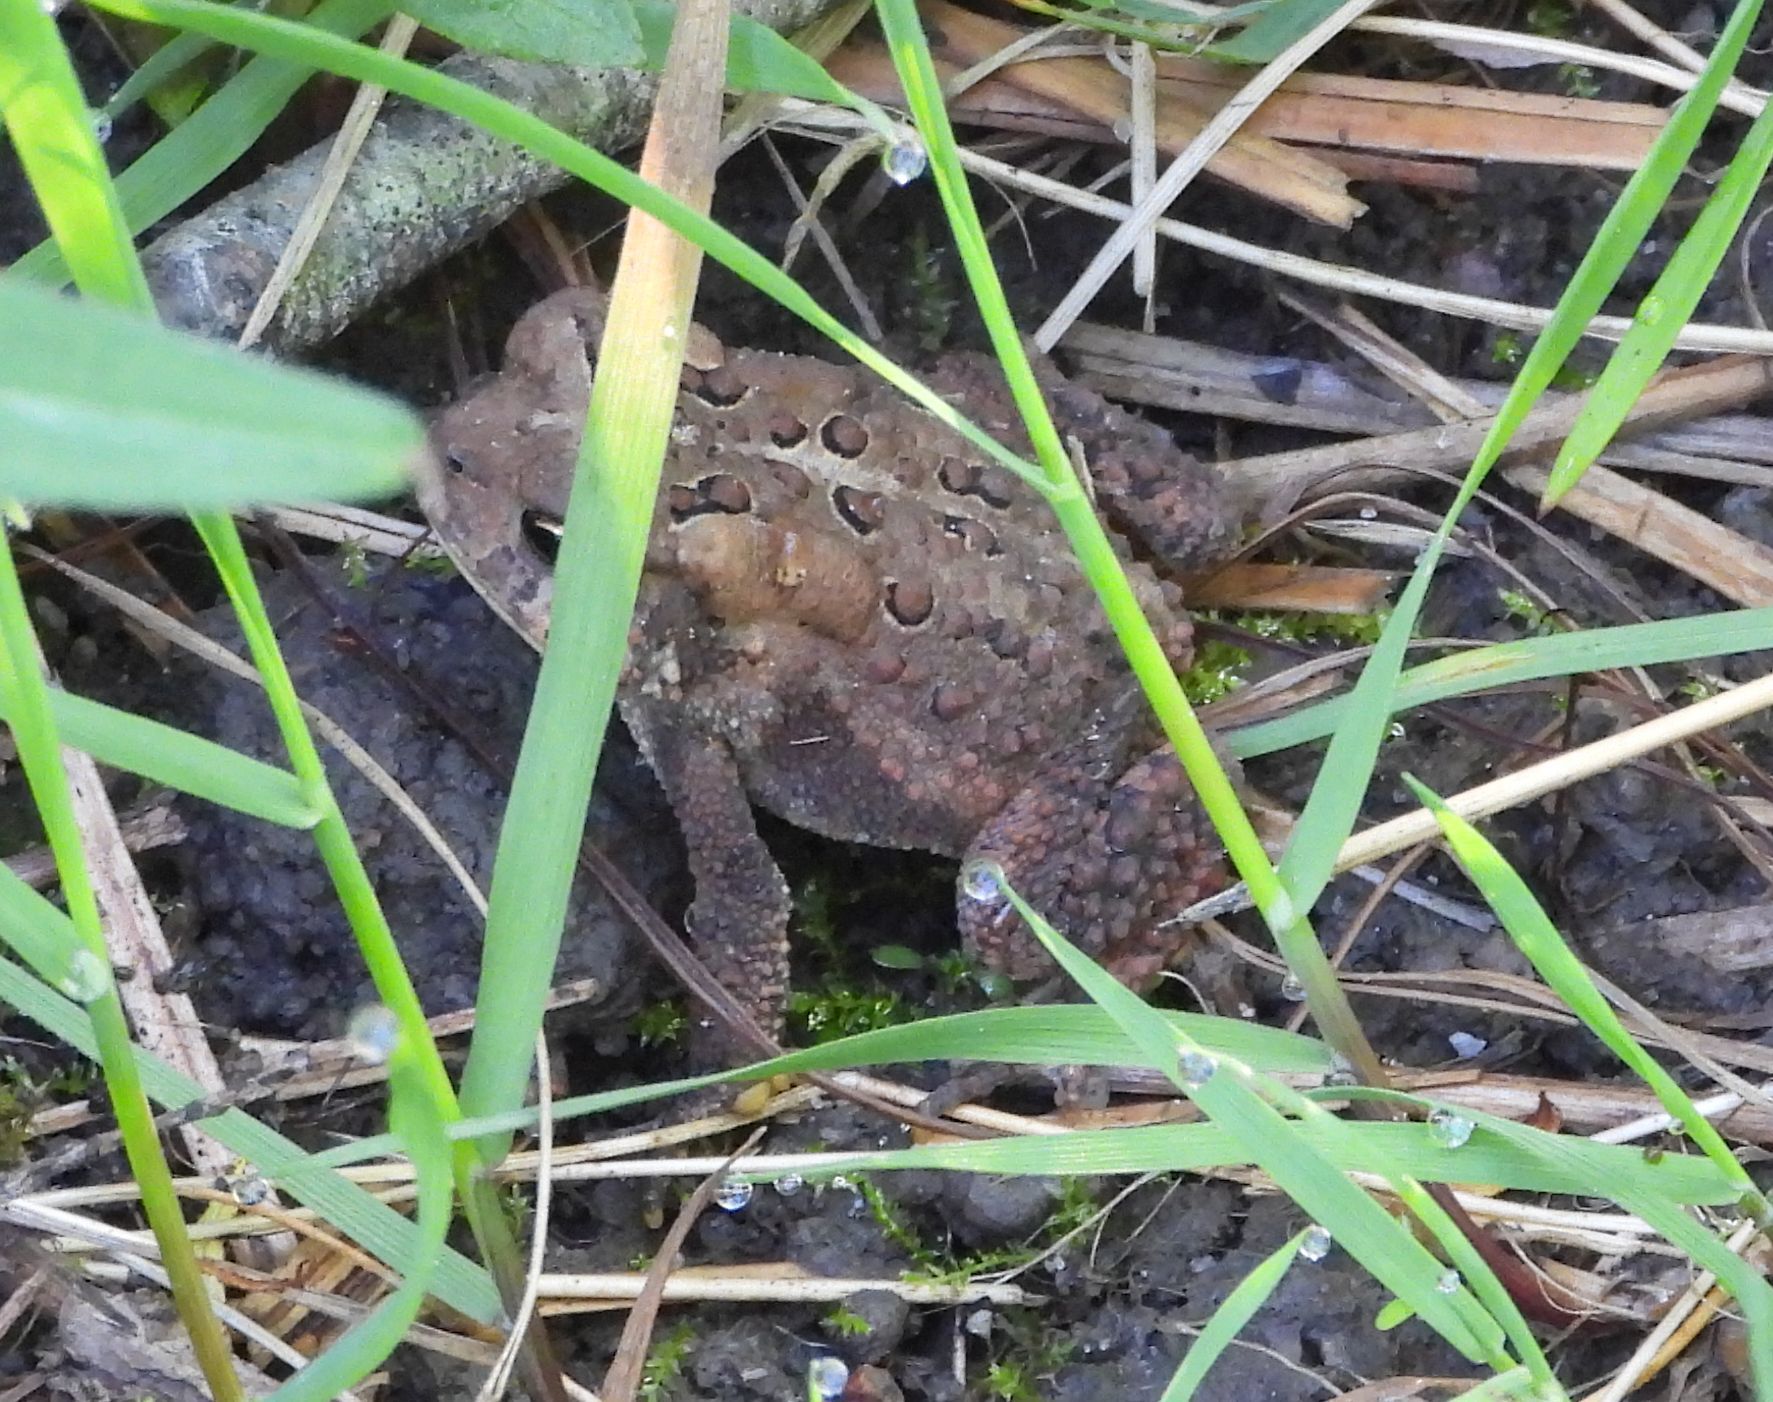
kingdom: Animalia
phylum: Chordata
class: Amphibia
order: Anura
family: Bufonidae
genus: Anaxyrus
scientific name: Anaxyrus americanus
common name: American toad
